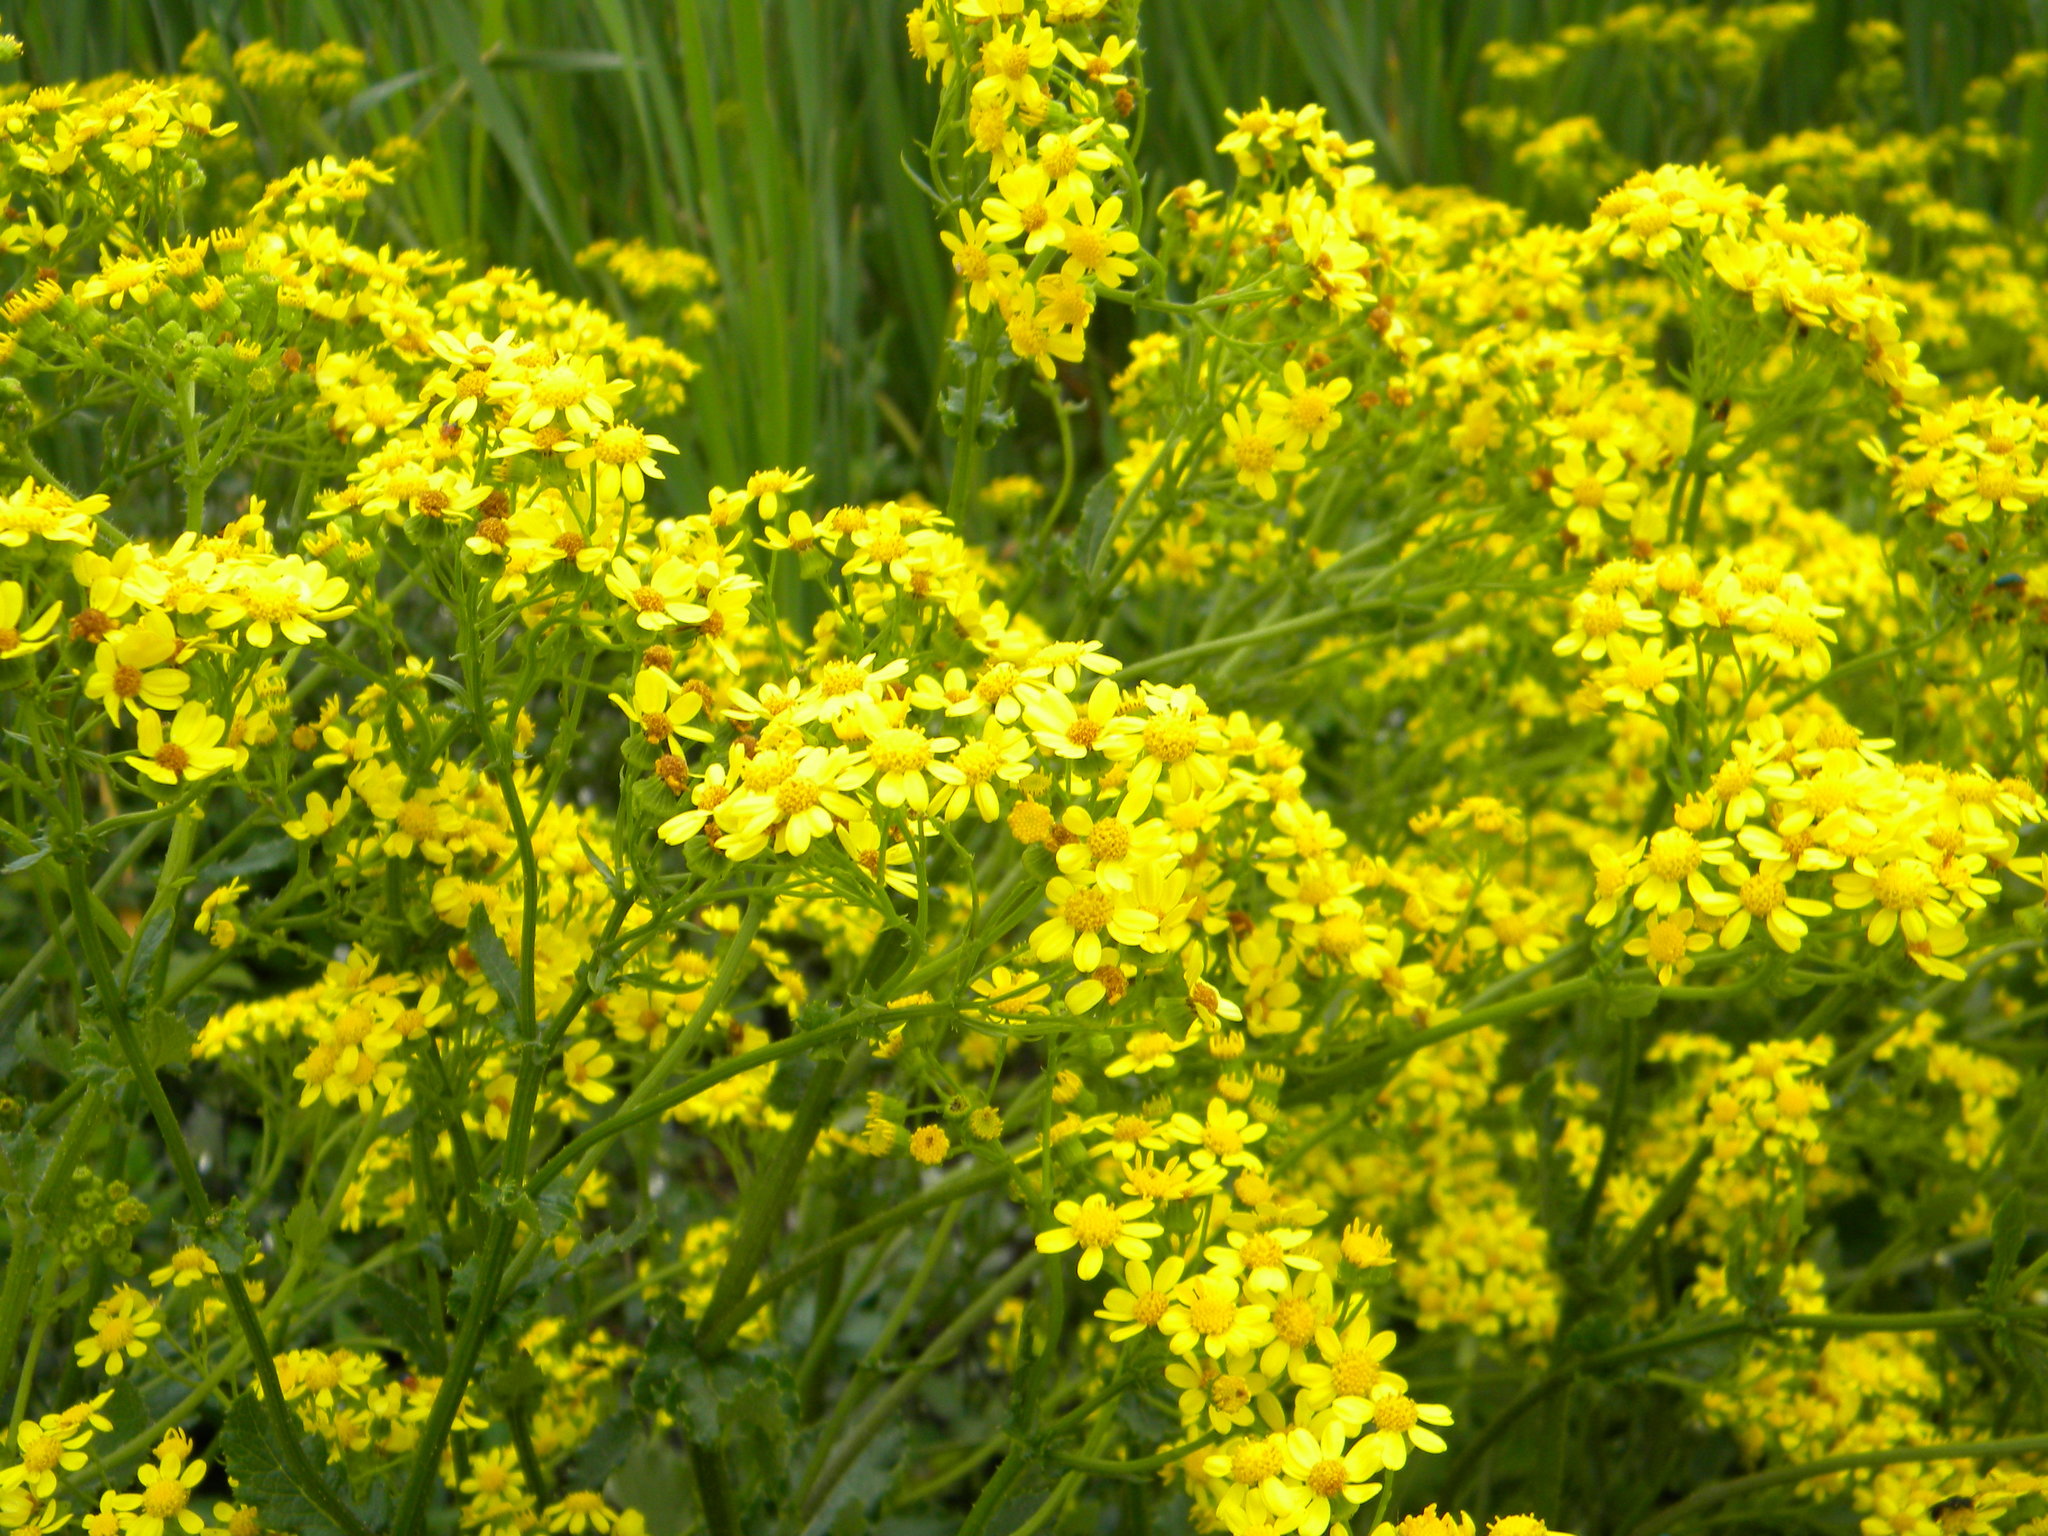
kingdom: Plantae
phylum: Tracheophyta
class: Magnoliopsida
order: Asterales
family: Asteraceae
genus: Senecio
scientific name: Senecio rigidus
